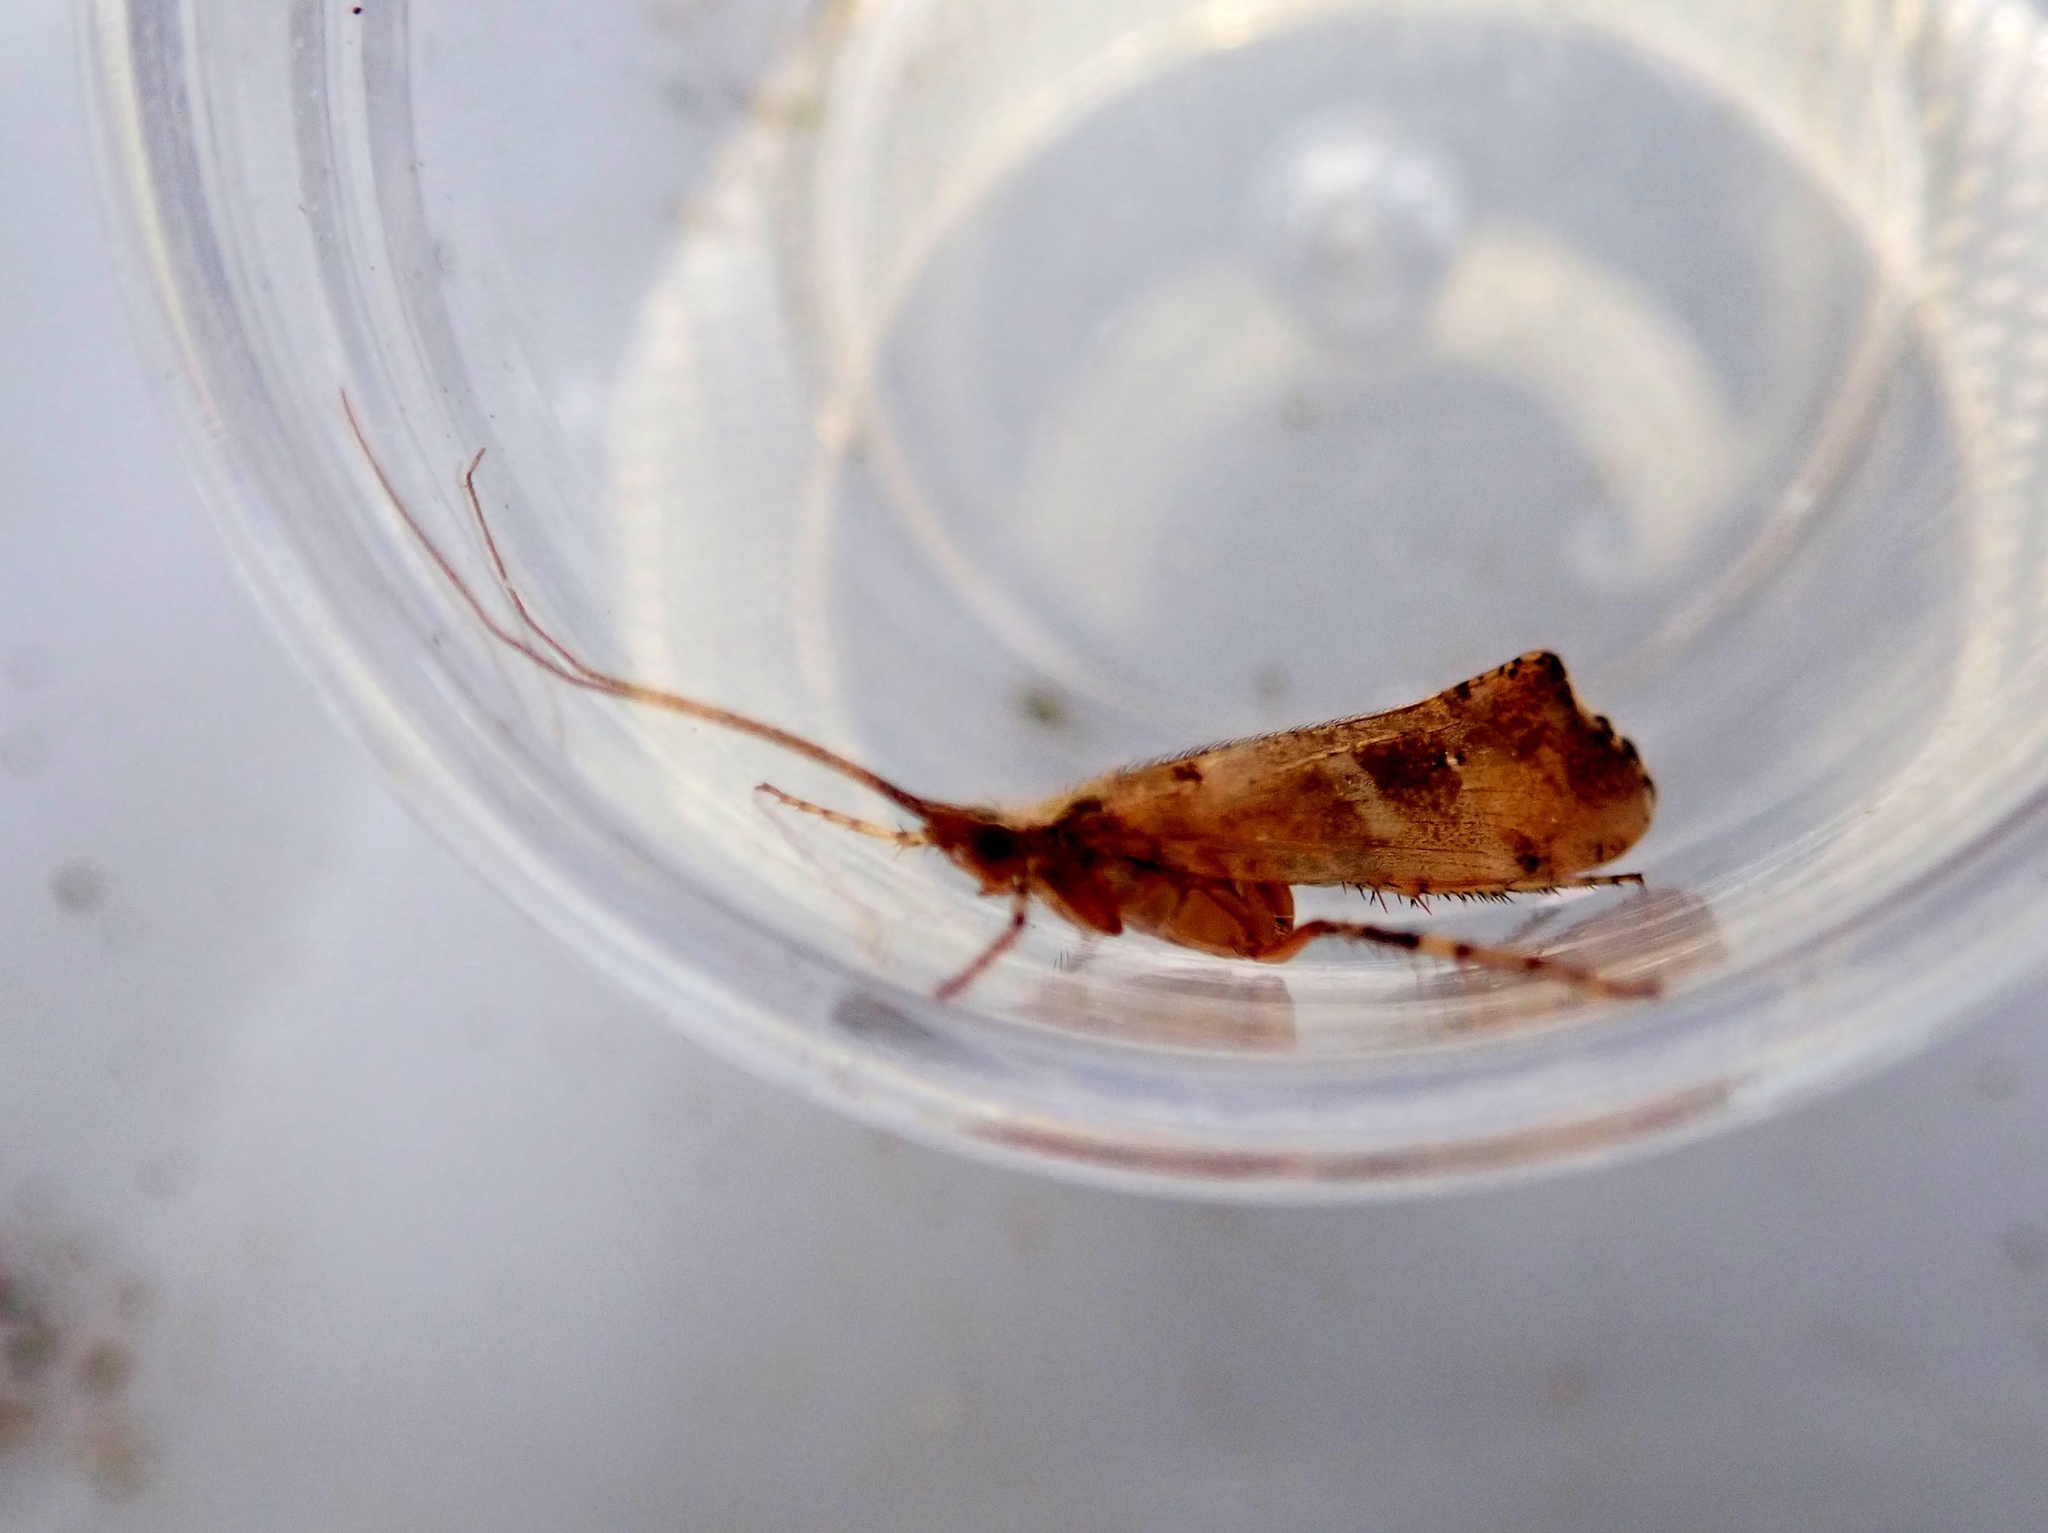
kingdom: Animalia
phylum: Arthropoda
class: Insecta
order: Trichoptera
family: Limnephilidae
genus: Glyphotaelius
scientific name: Glyphotaelius pellucidus
